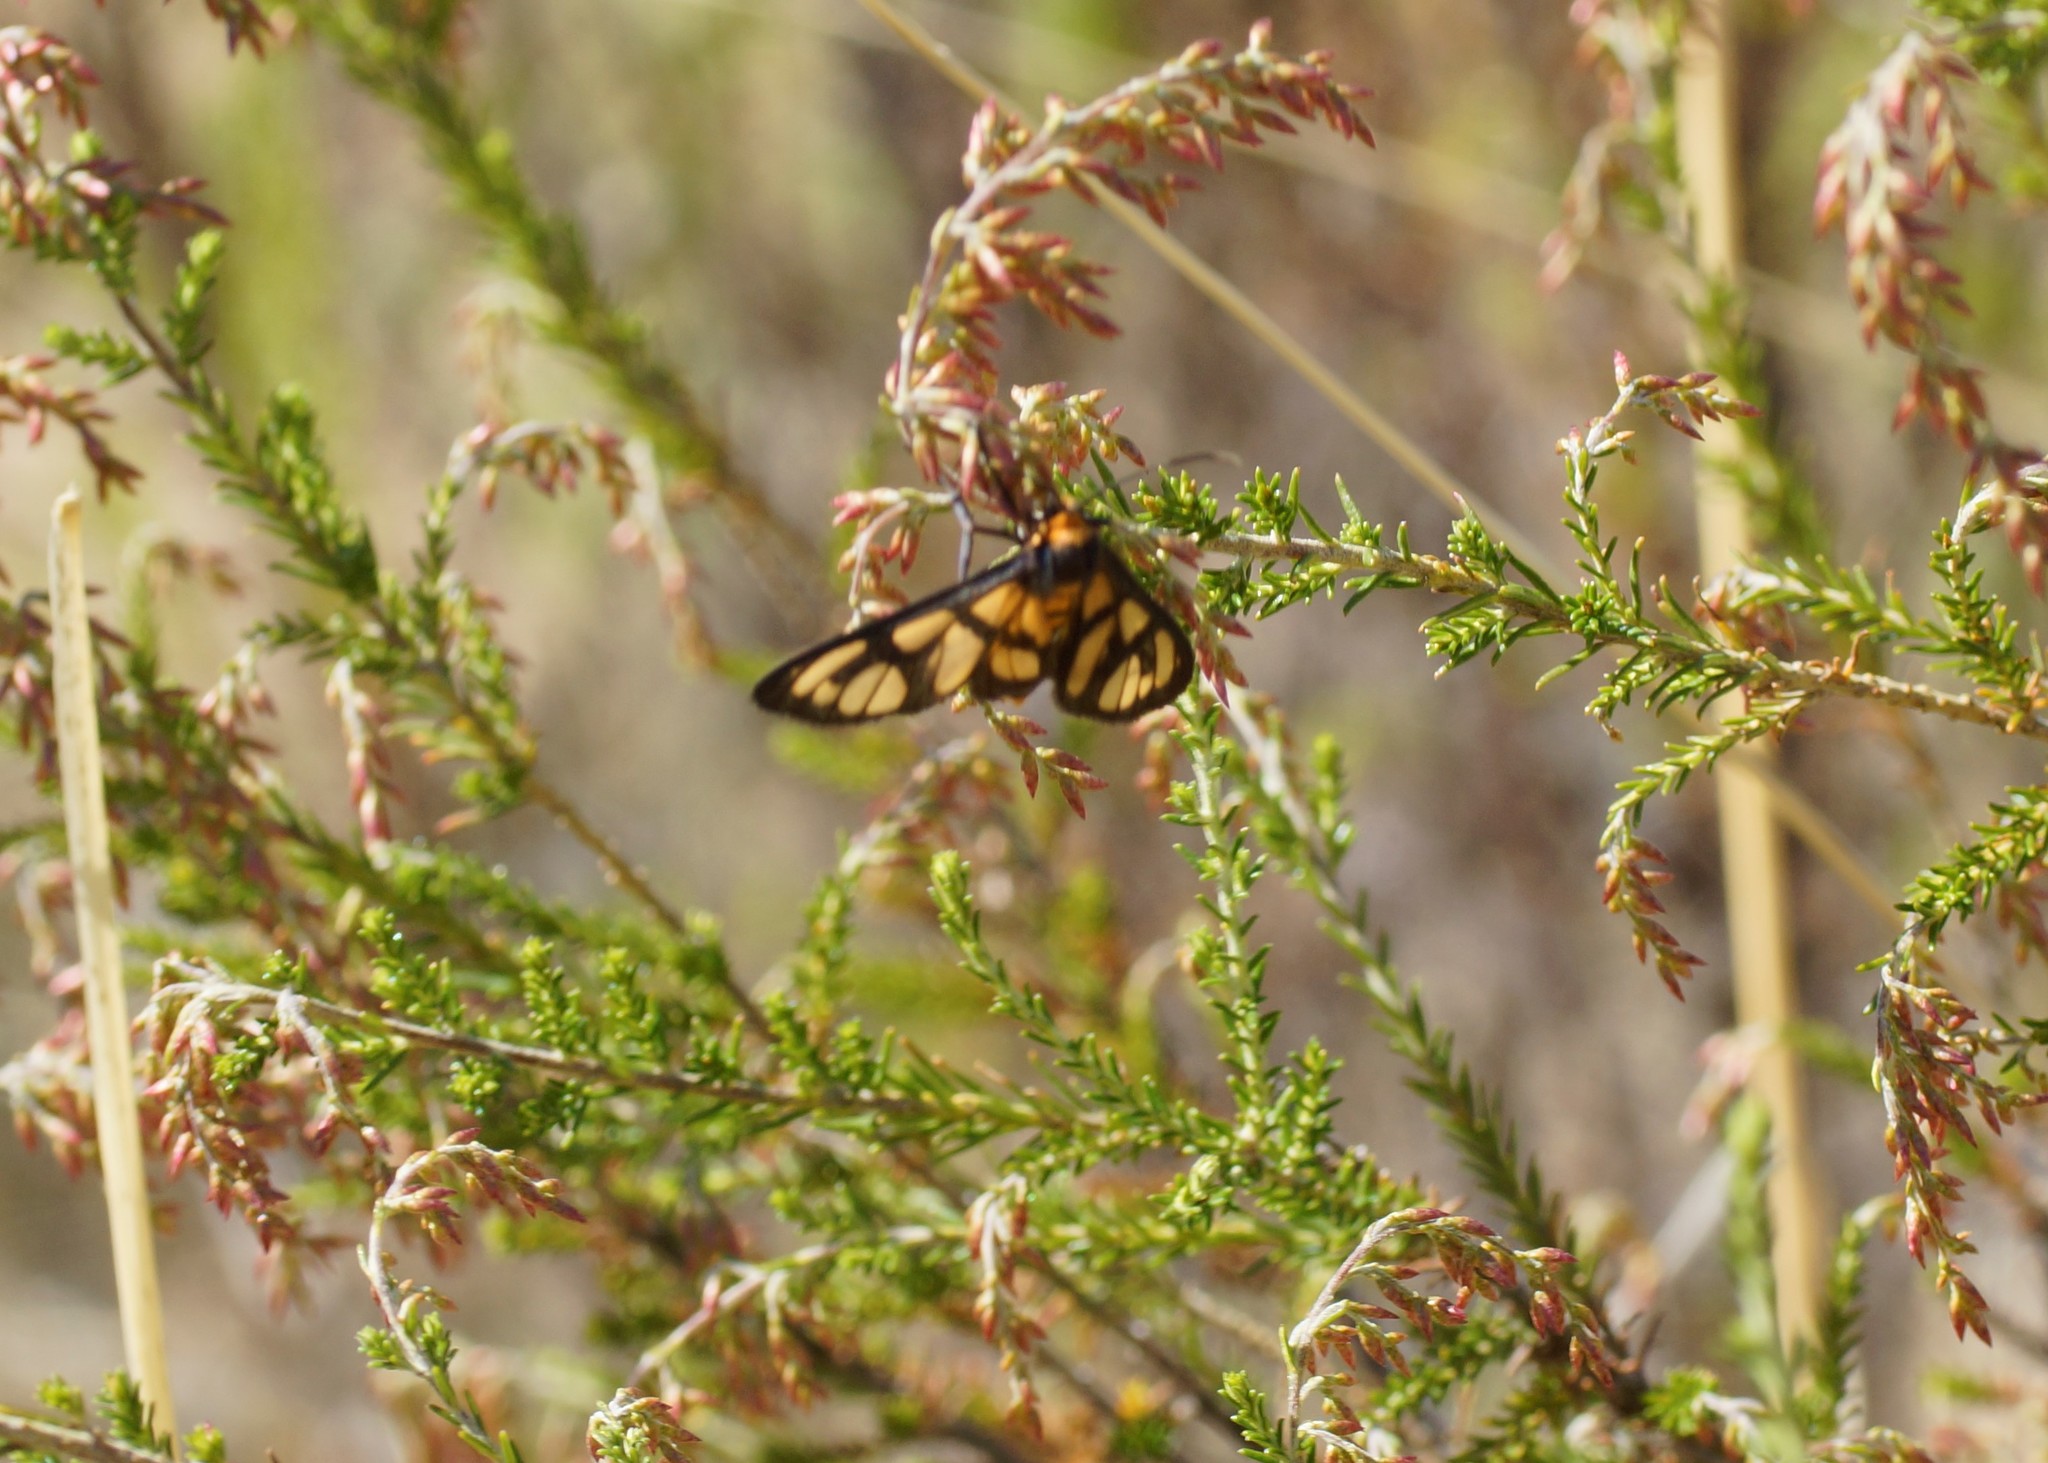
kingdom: Animalia
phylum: Arthropoda
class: Insecta
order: Lepidoptera
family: Erebidae
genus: Amata
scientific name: Amata aperta
